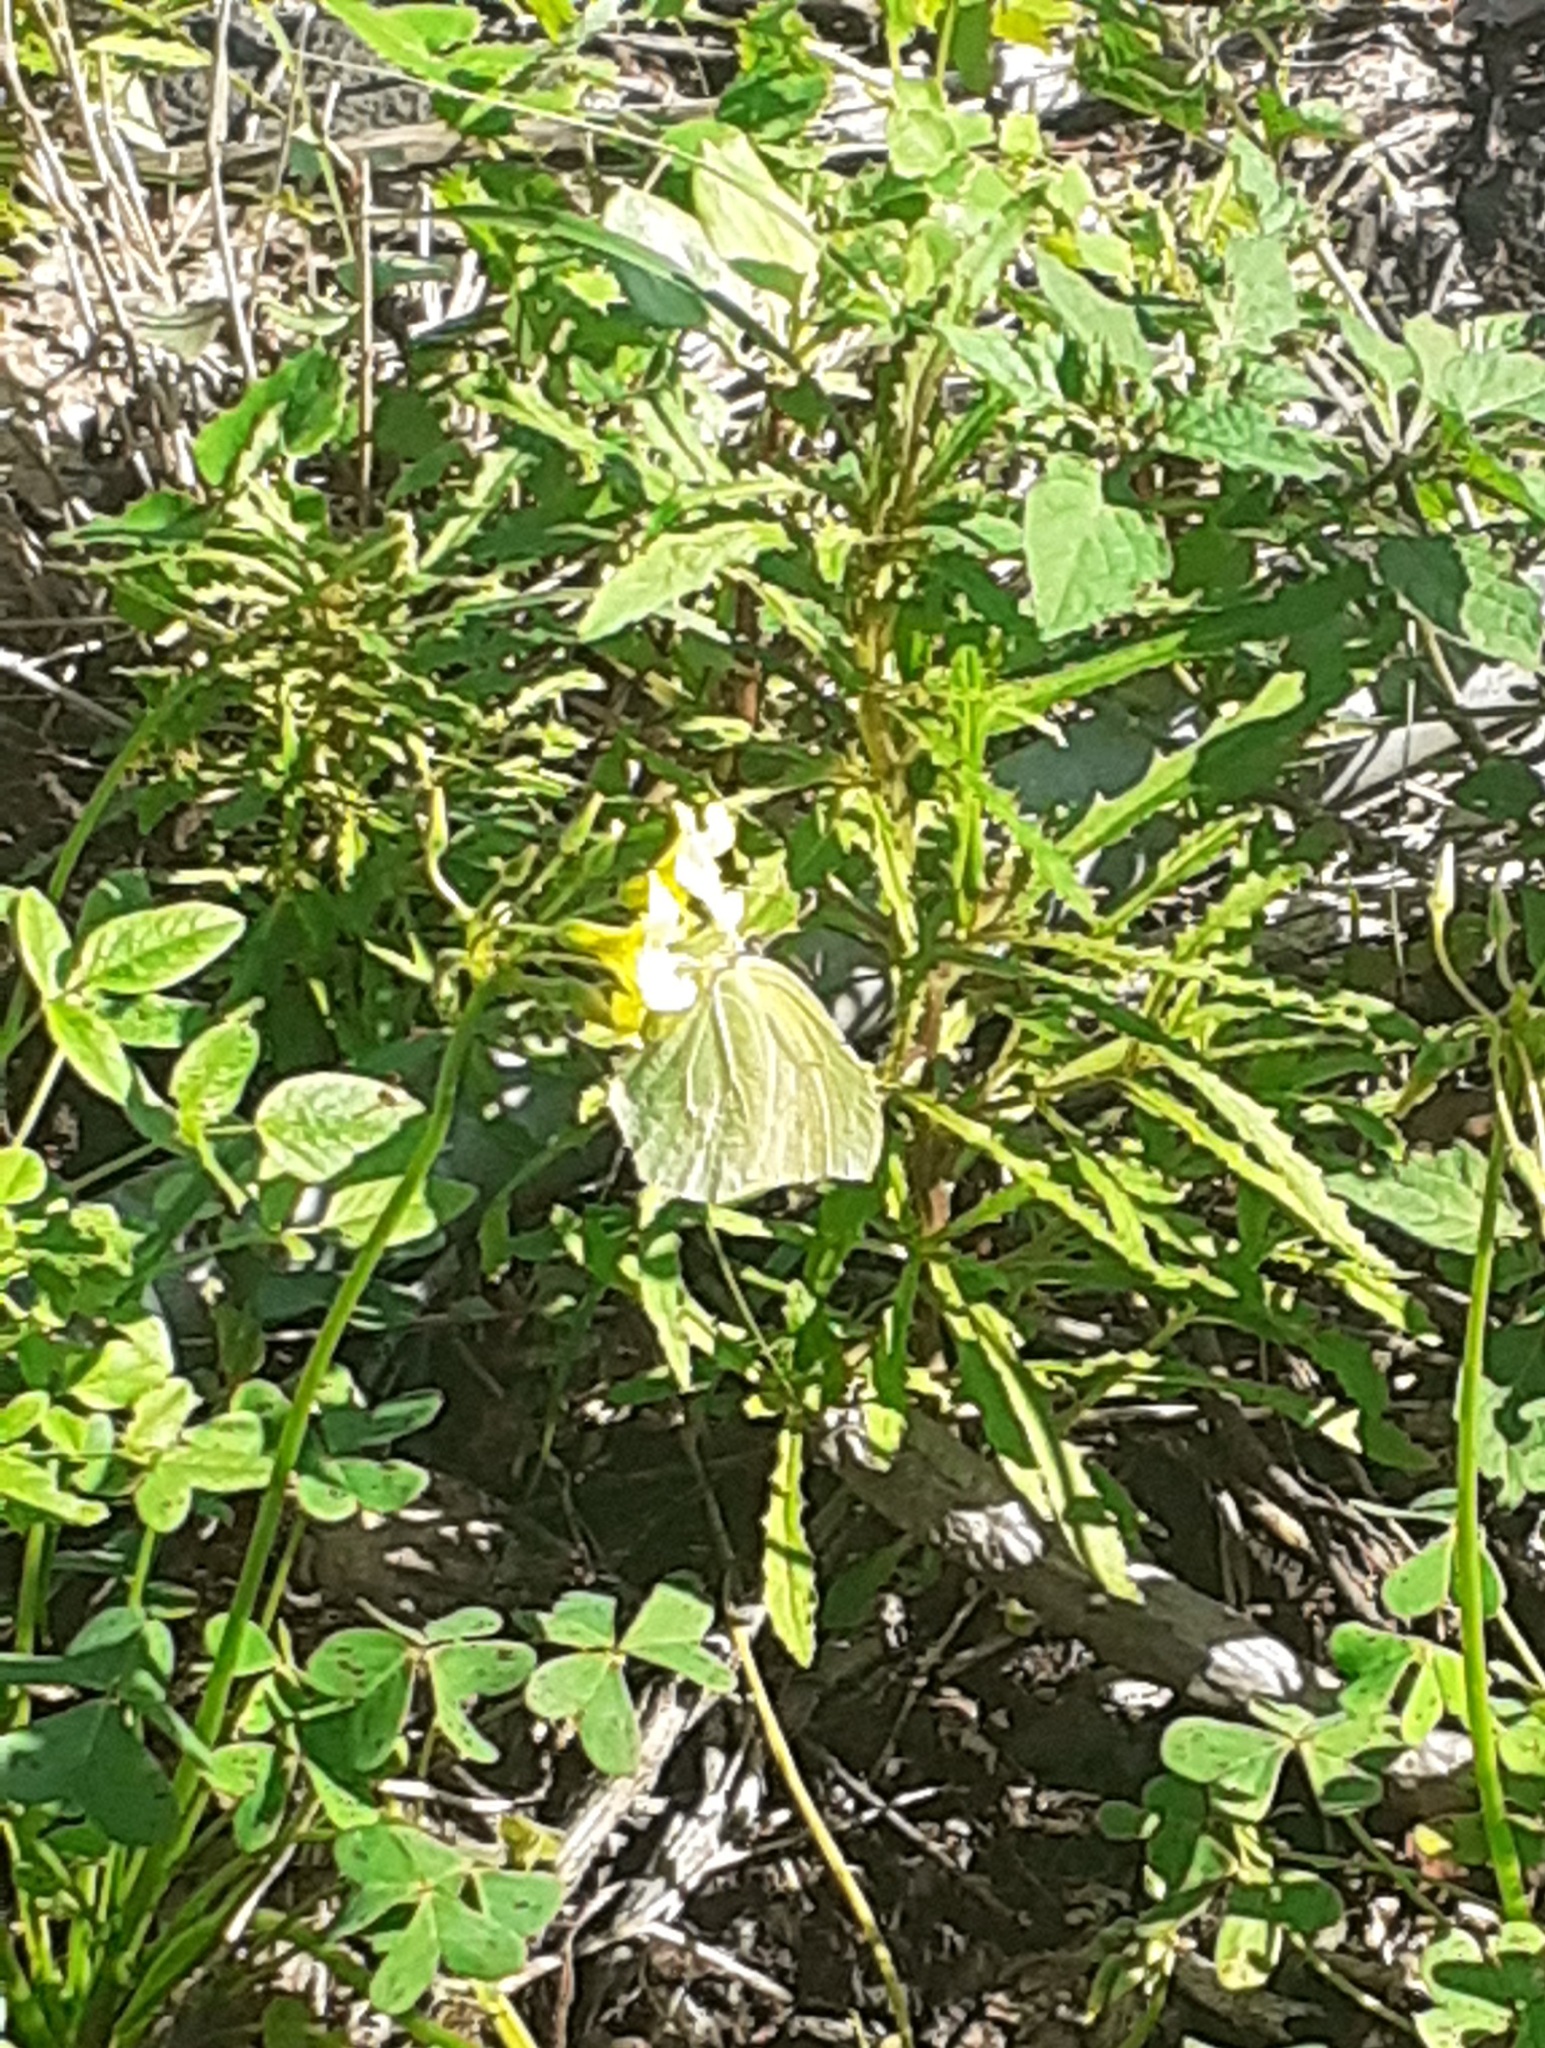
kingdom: Animalia
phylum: Arthropoda
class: Insecta
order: Lepidoptera
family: Pieridae
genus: Gonepteryx
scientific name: Gonepteryx cleobule
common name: Canary brimstone
